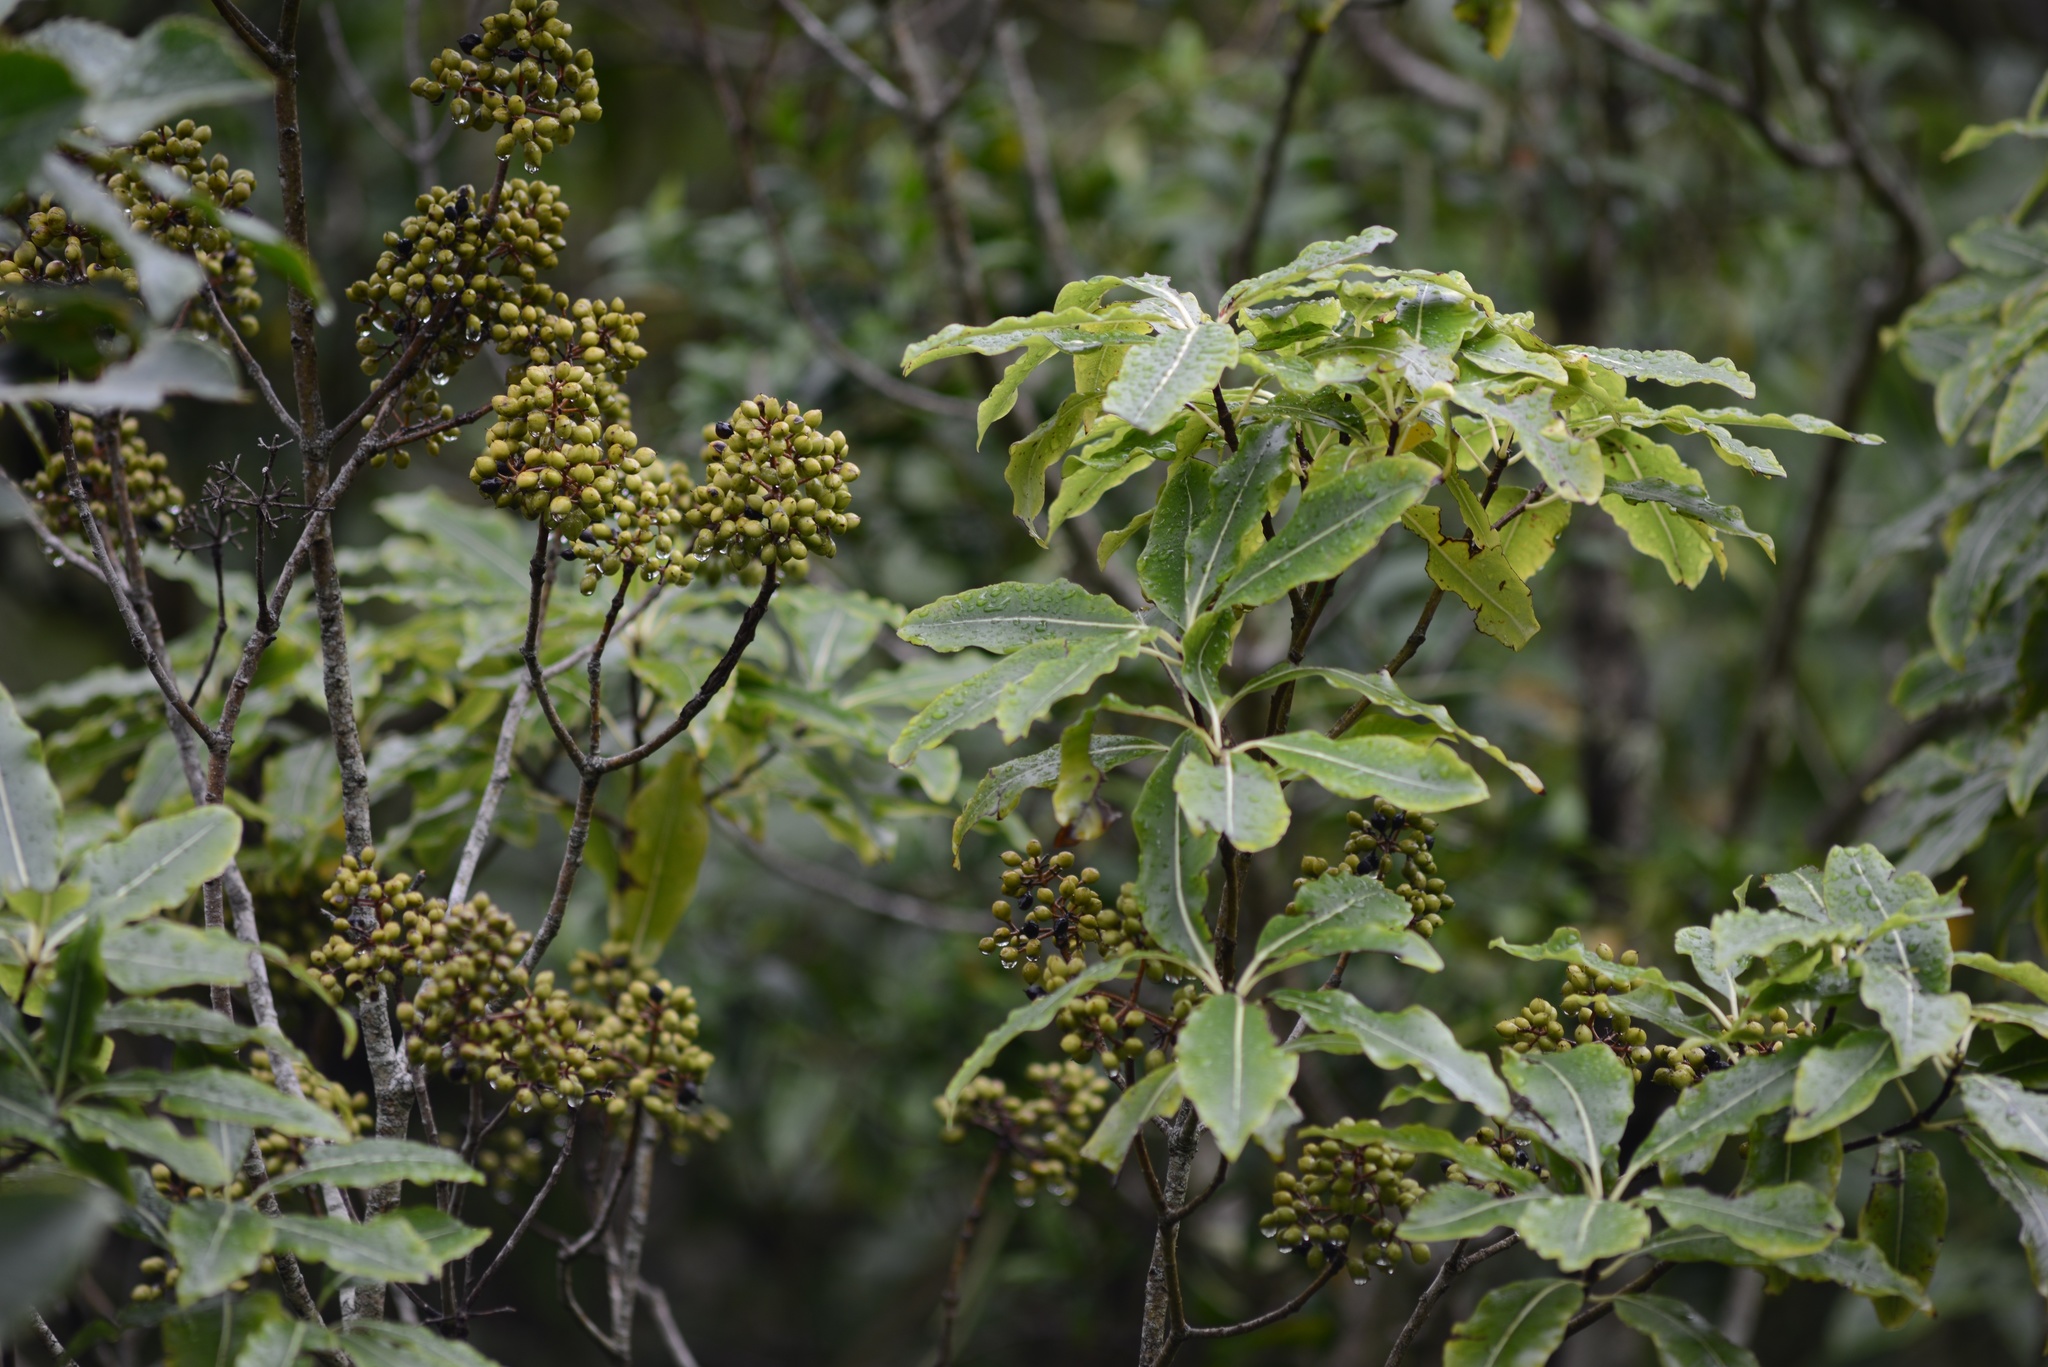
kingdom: Plantae
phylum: Tracheophyta
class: Magnoliopsida
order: Apiales
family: Pittosporaceae
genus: Pittosporum
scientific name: Pittosporum eugenioides
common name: Lemonwood
